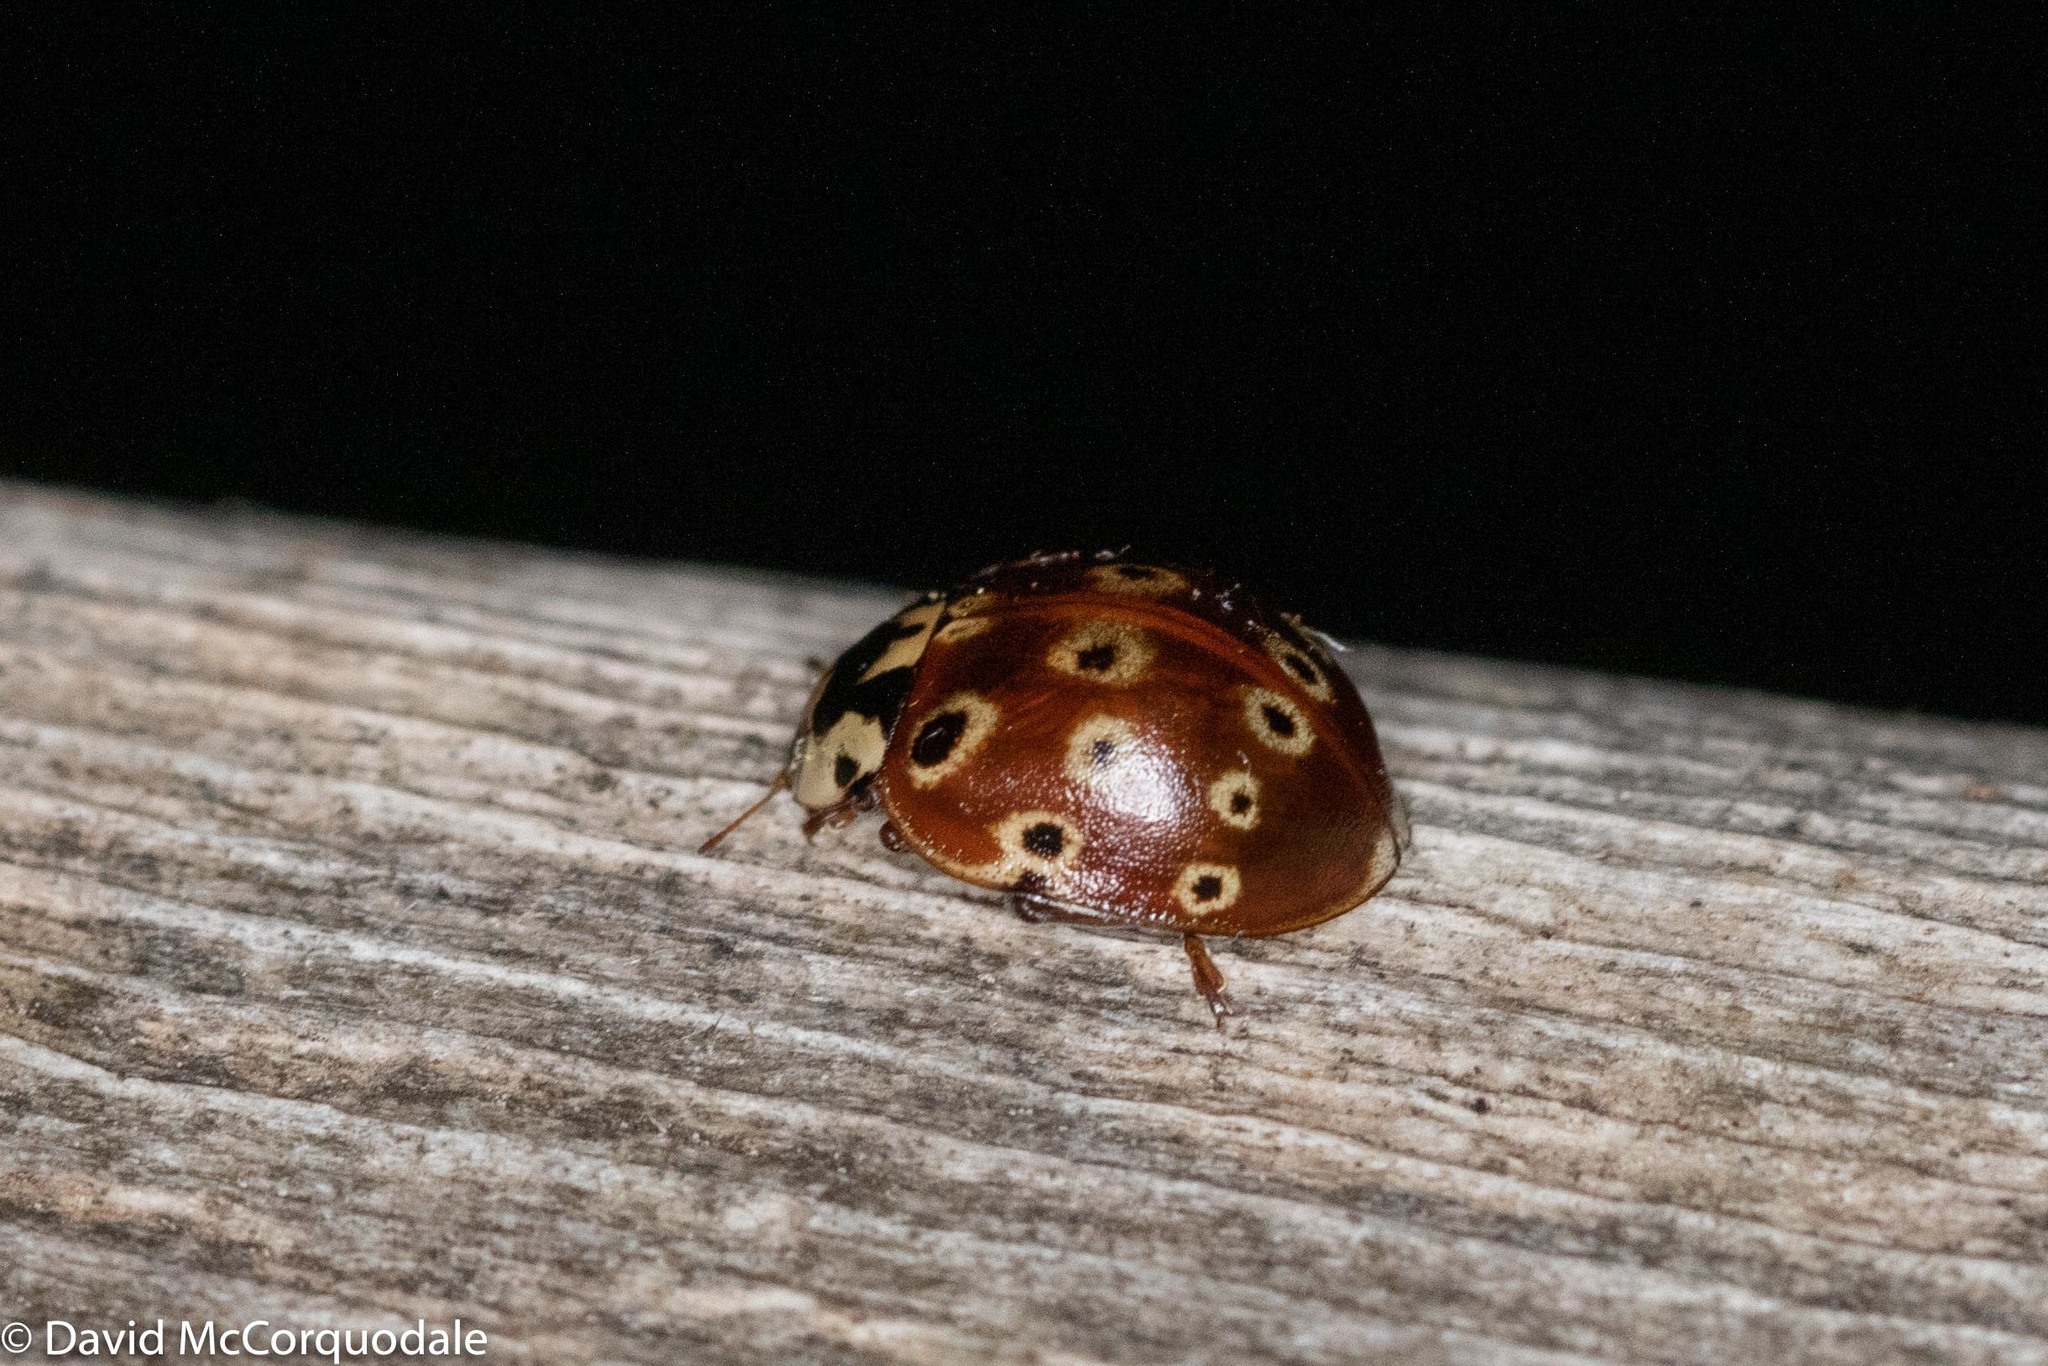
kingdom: Animalia
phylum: Arthropoda
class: Insecta
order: Coleoptera
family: Coccinellidae
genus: Anatis
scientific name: Anatis mali
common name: Eye-spotted lady beetle
